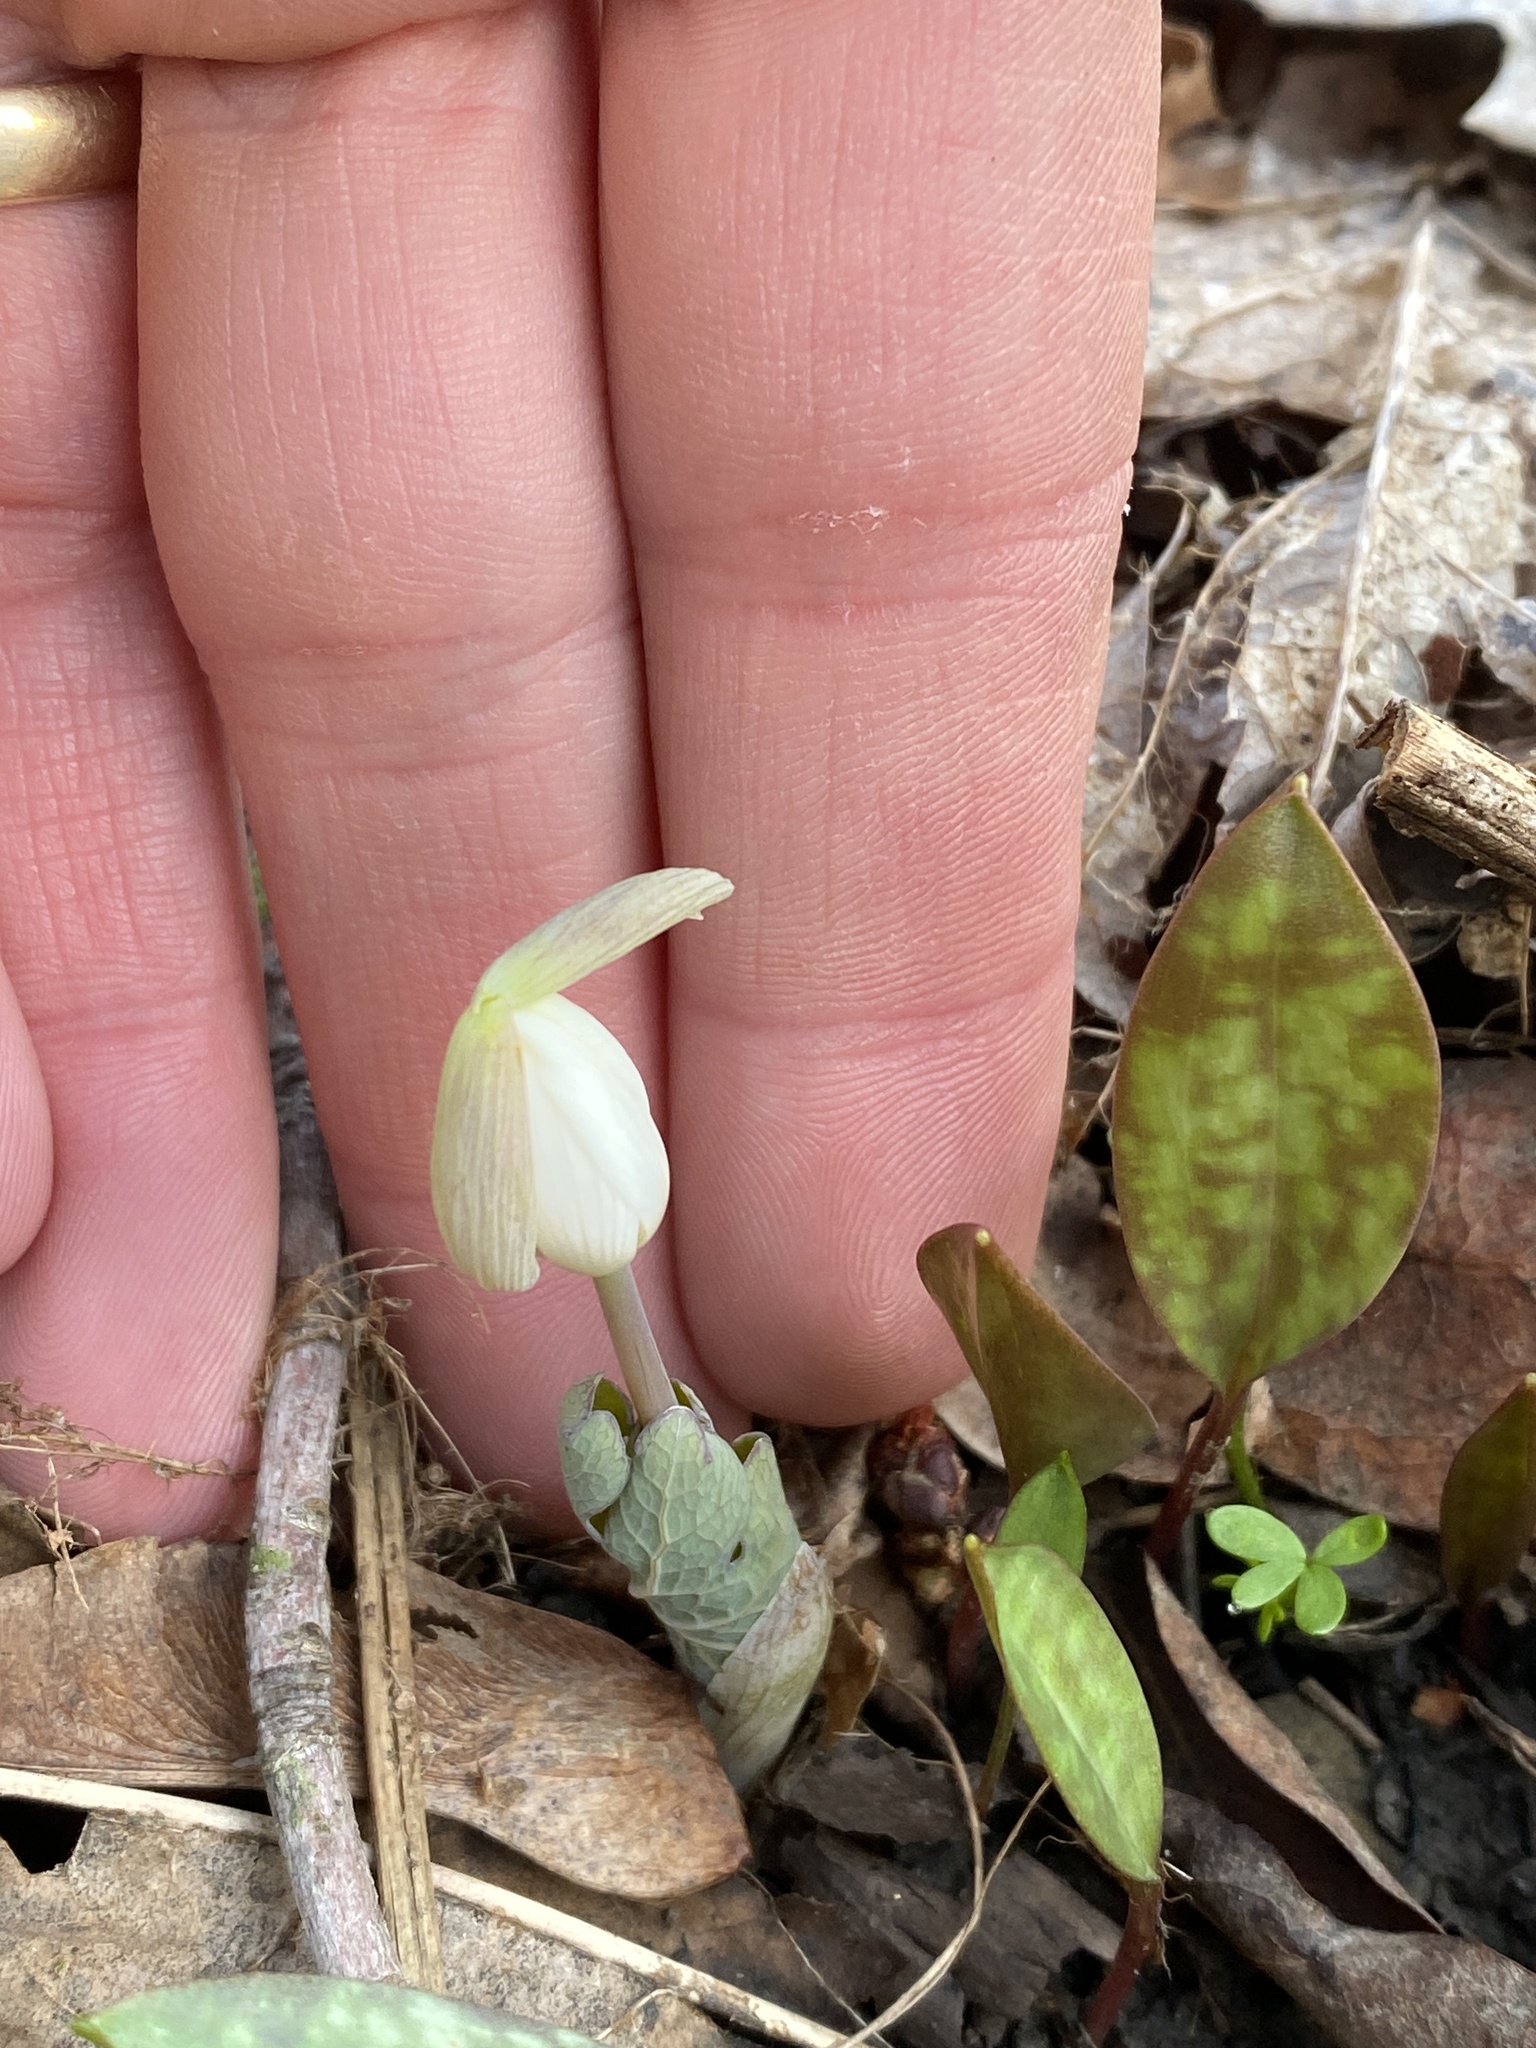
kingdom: Plantae
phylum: Tracheophyta
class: Magnoliopsida
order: Ranunculales
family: Papaveraceae
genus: Sanguinaria
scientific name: Sanguinaria canadensis
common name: Bloodroot
